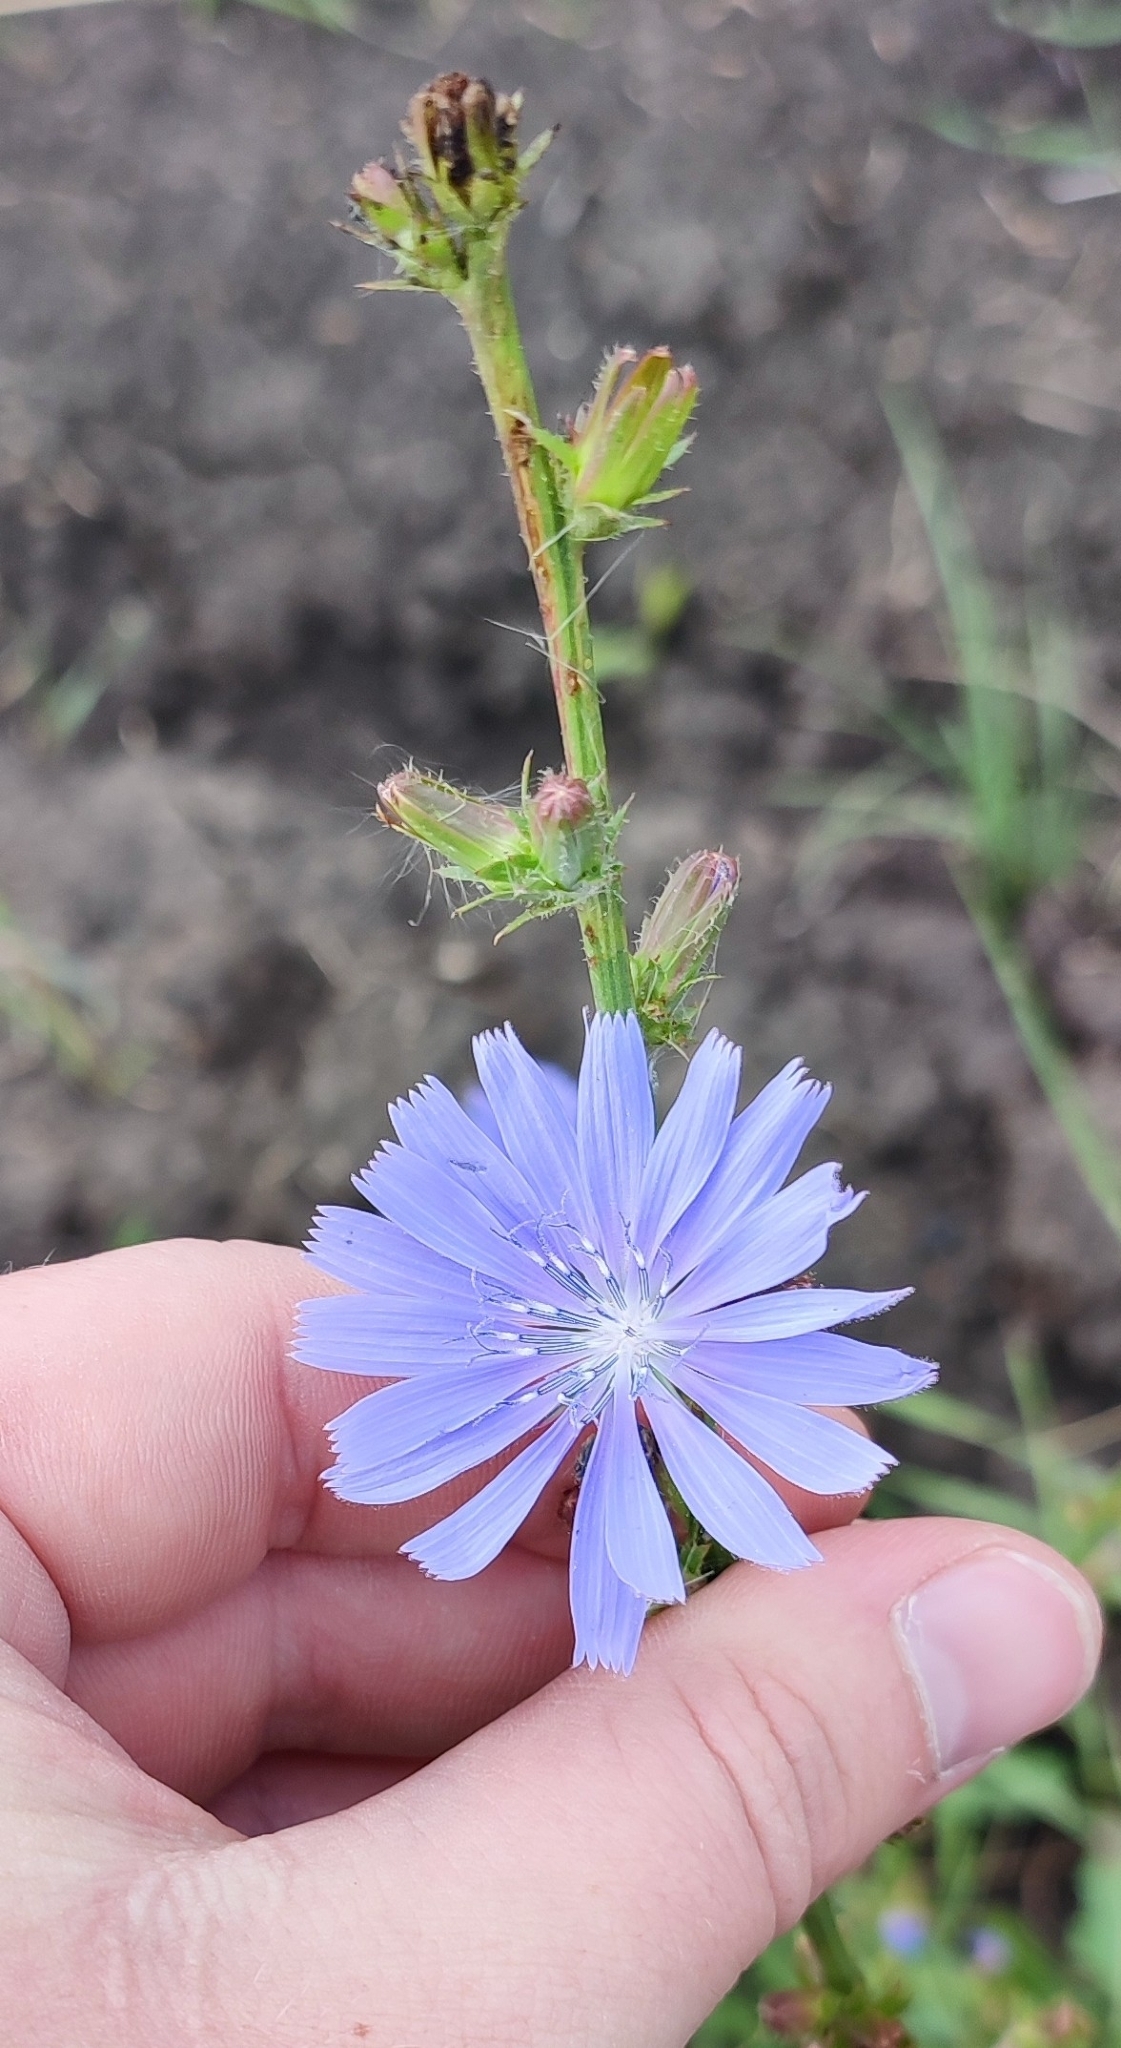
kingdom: Plantae
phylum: Tracheophyta
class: Magnoliopsida
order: Asterales
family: Asteraceae
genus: Cichorium
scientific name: Cichorium intybus
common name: Chicory
